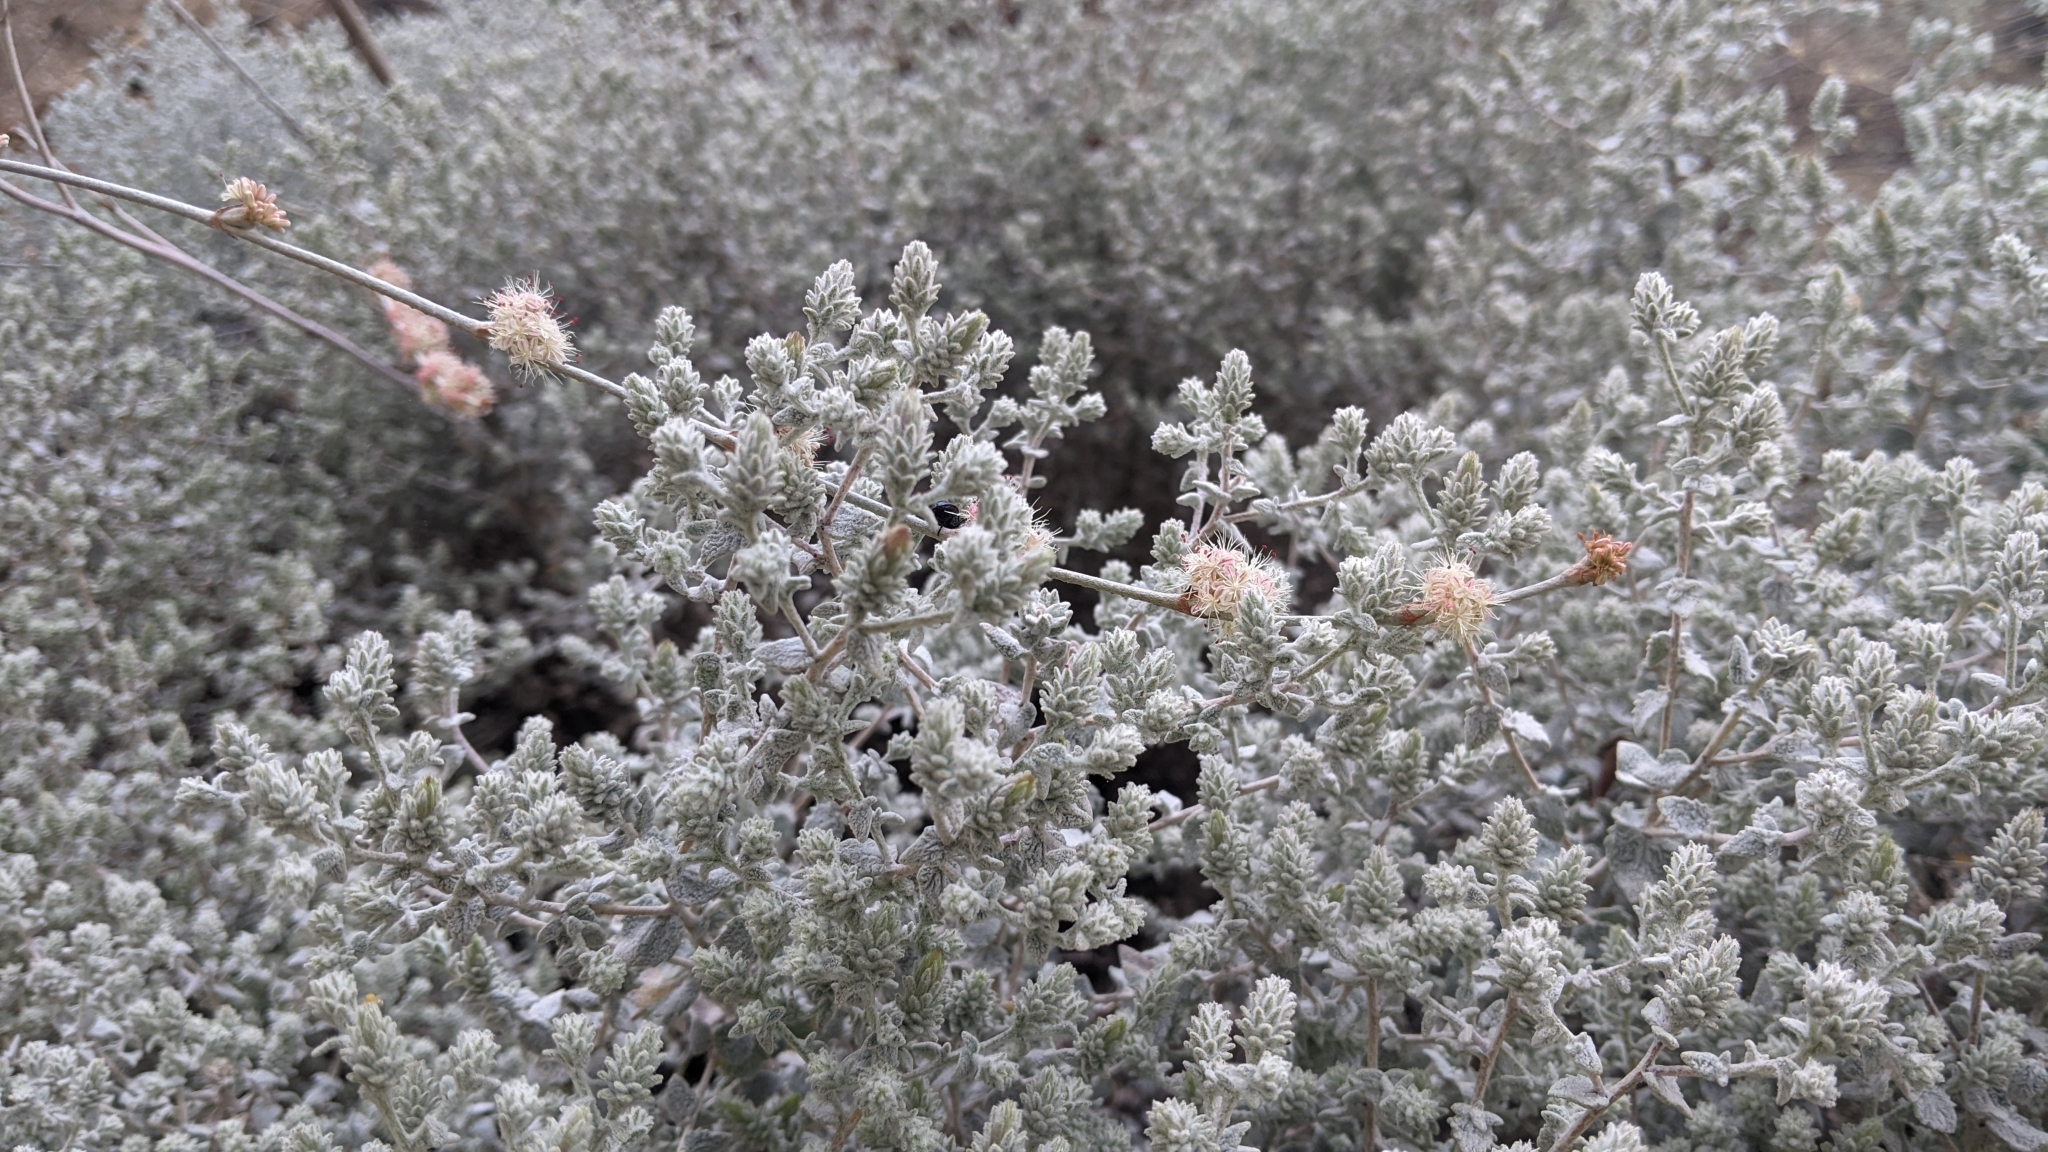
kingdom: Plantae
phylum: Tracheophyta
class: Magnoliopsida
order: Asterales
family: Asteraceae
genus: Brickellia
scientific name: Brickellia nevinii
